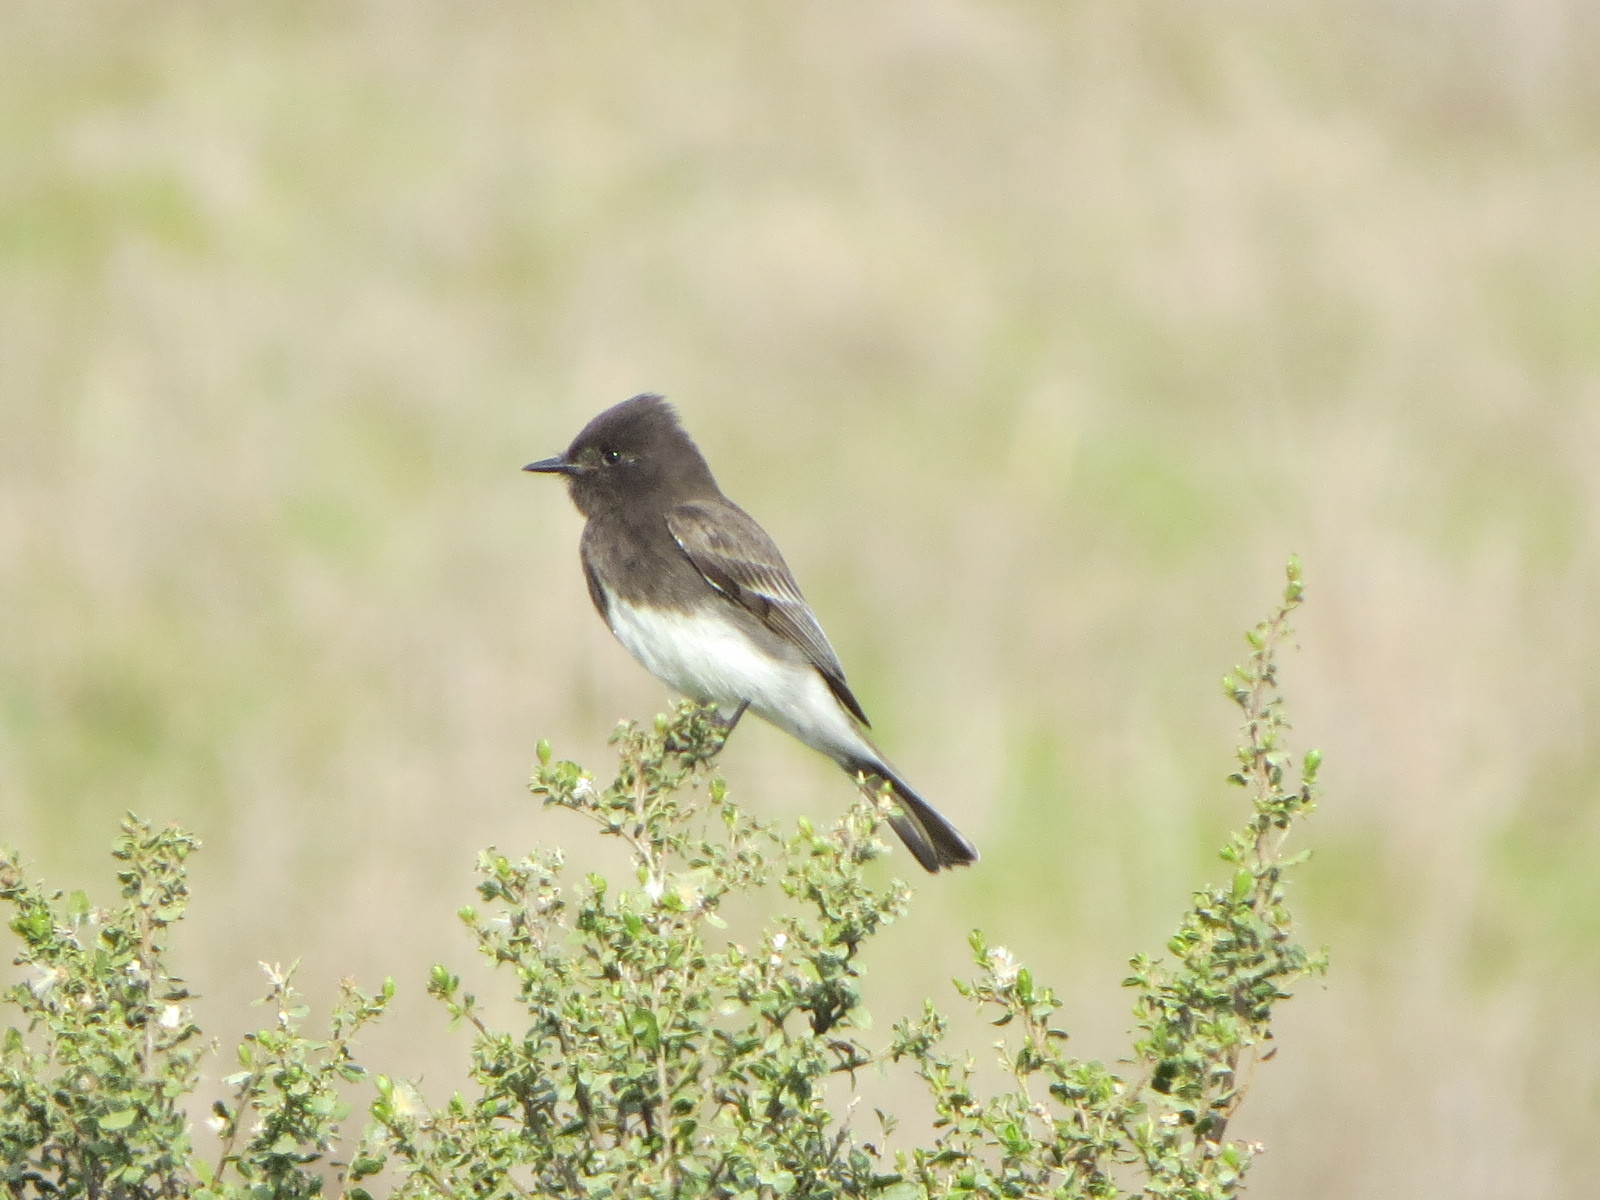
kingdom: Animalia
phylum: Chordata
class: Aves
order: Passeriformes
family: Tyrannidae
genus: Sayornis
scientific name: Sayornis nigricans
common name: Black phoebe
